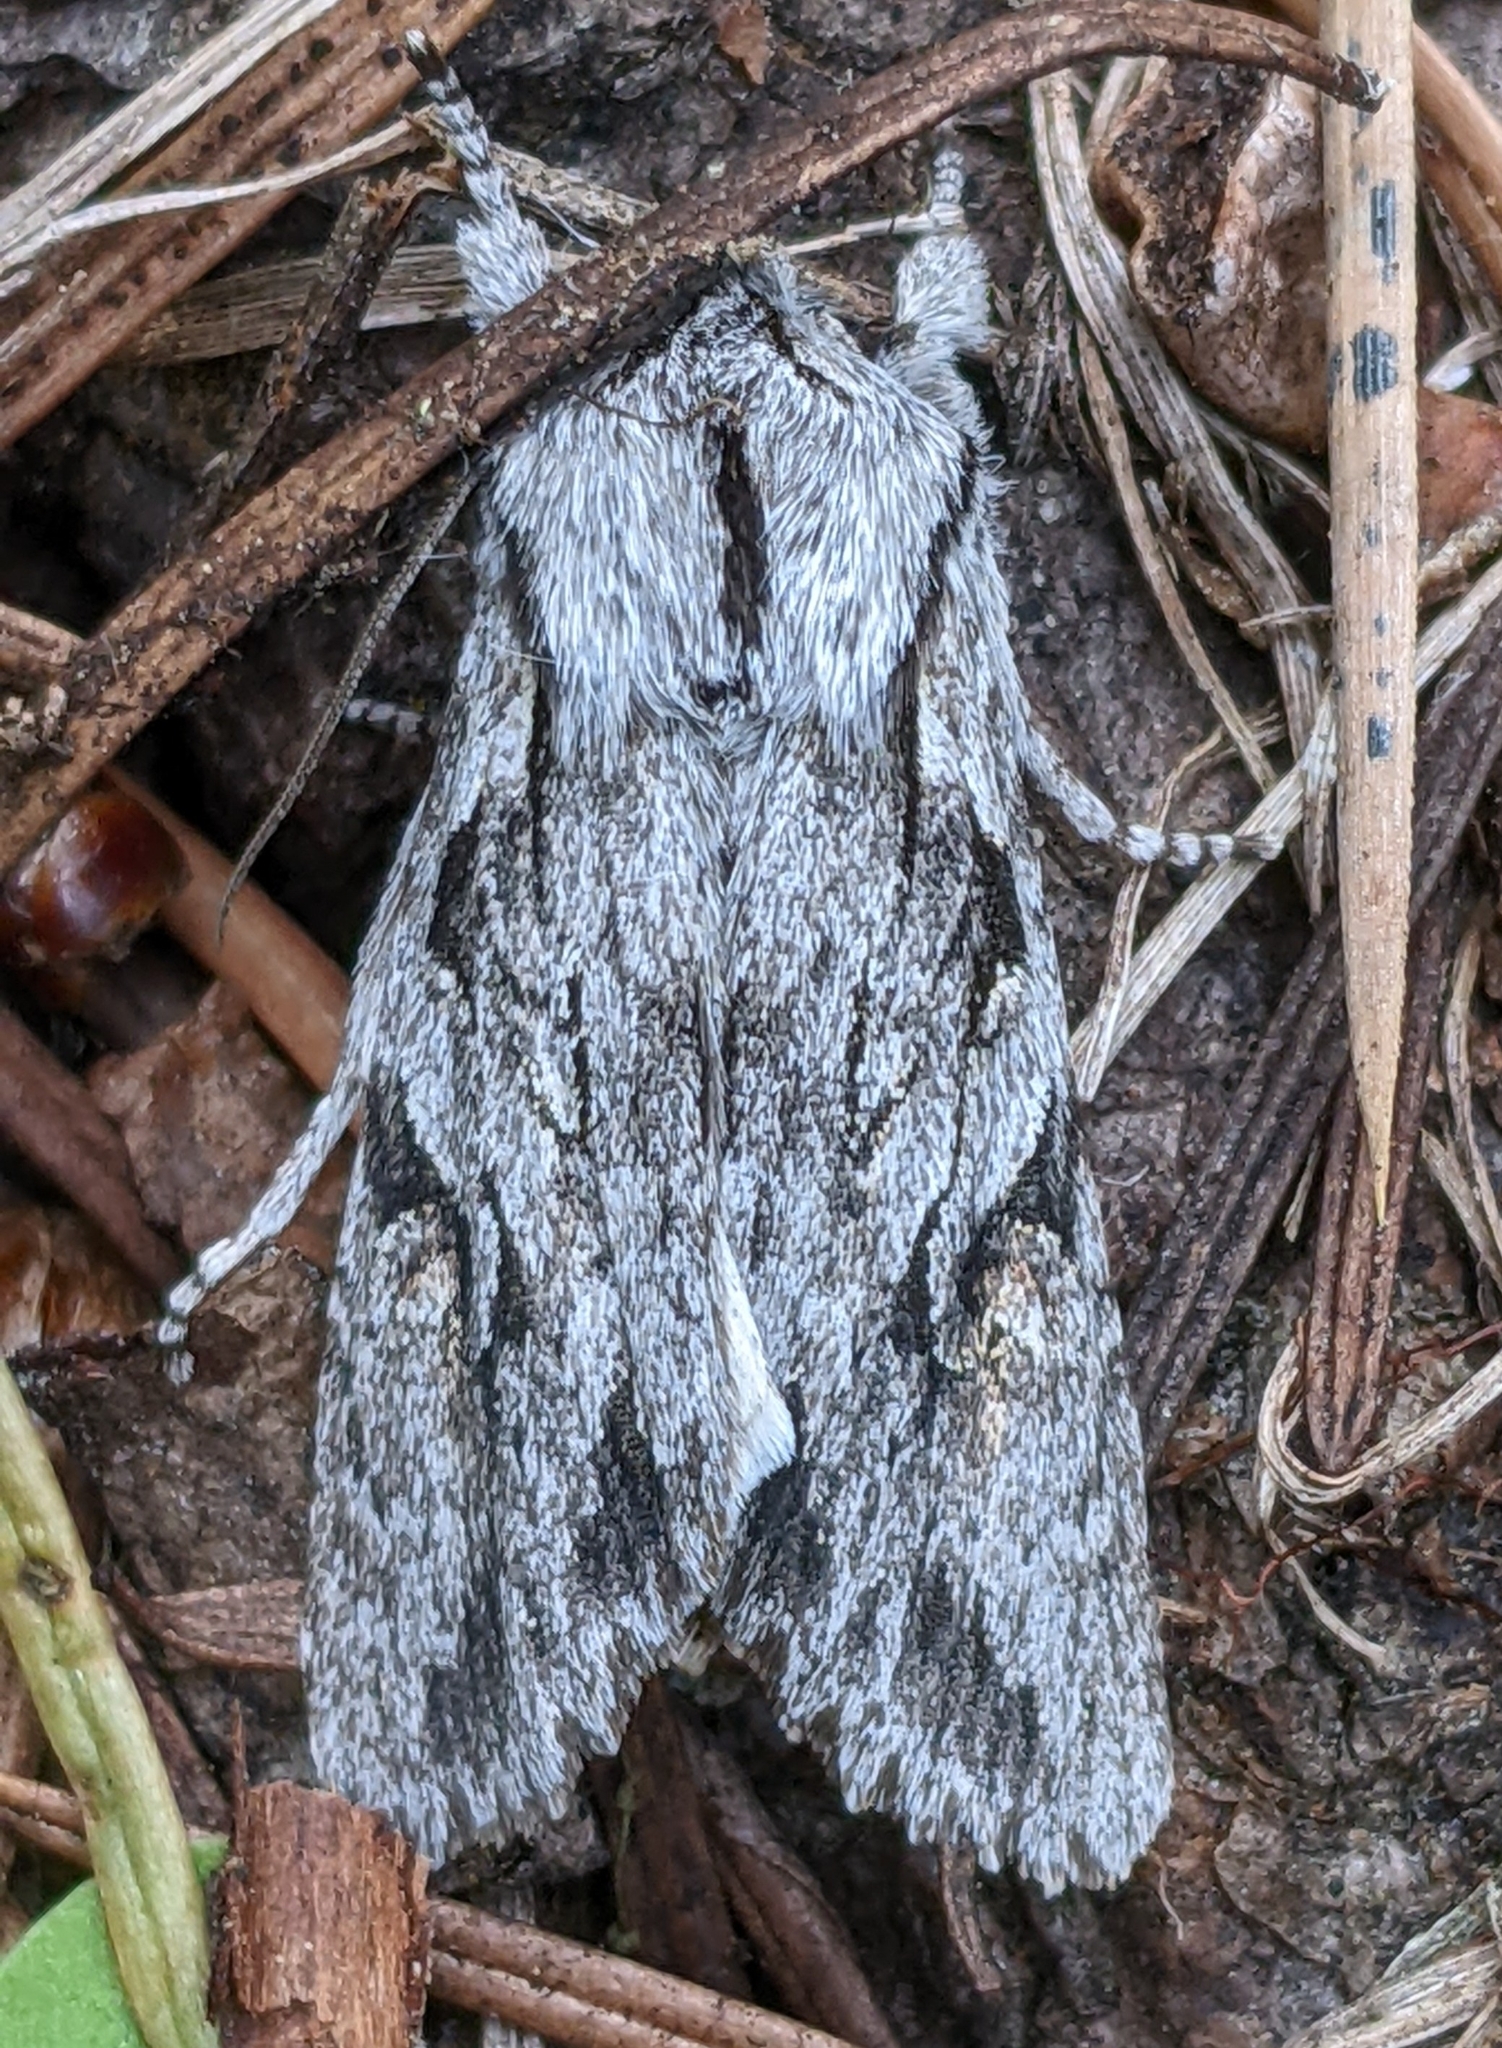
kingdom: Animalia
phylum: Arthropoda
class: Insecta
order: Lepidoptera
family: Noctuidae
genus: Egira
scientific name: Egira crucialis
